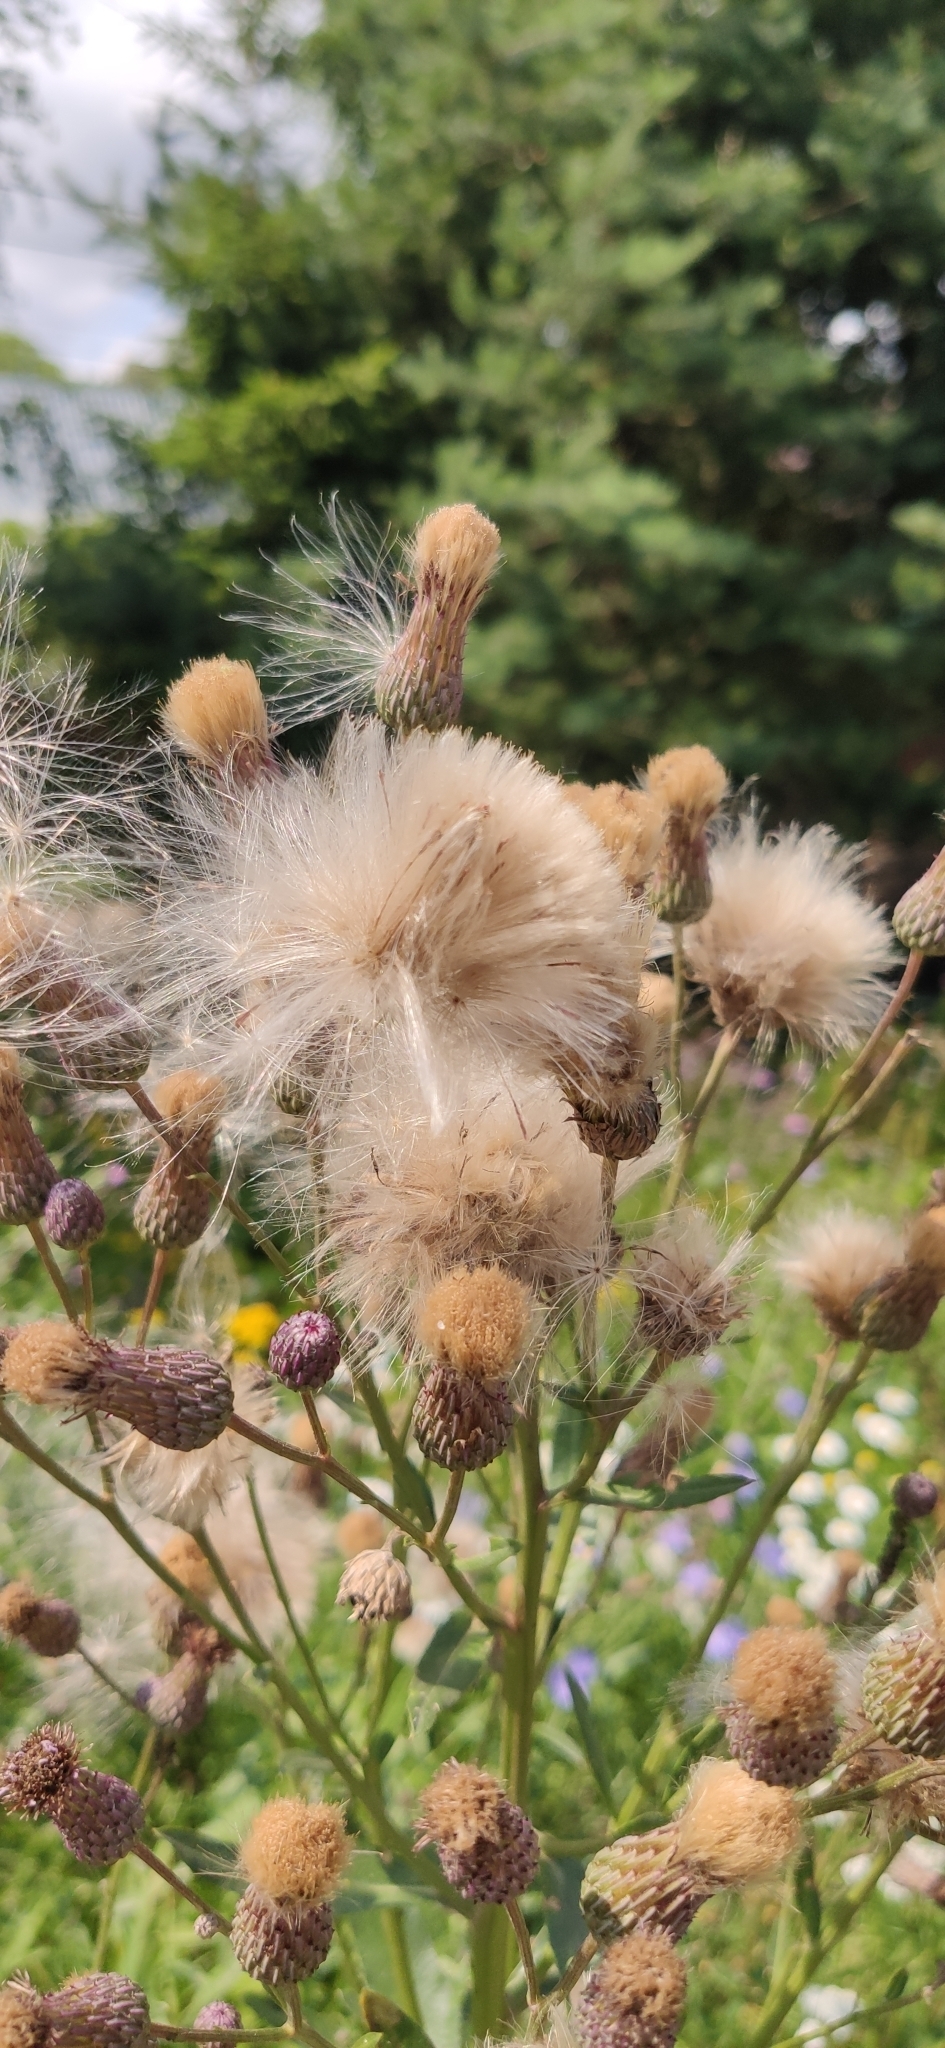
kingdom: Plantae
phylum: Tracheophyta
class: Magnoliopsida
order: Asterales
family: Asteraceae
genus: Cirsium
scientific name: Cirsium arvense
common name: Creeping thistle
